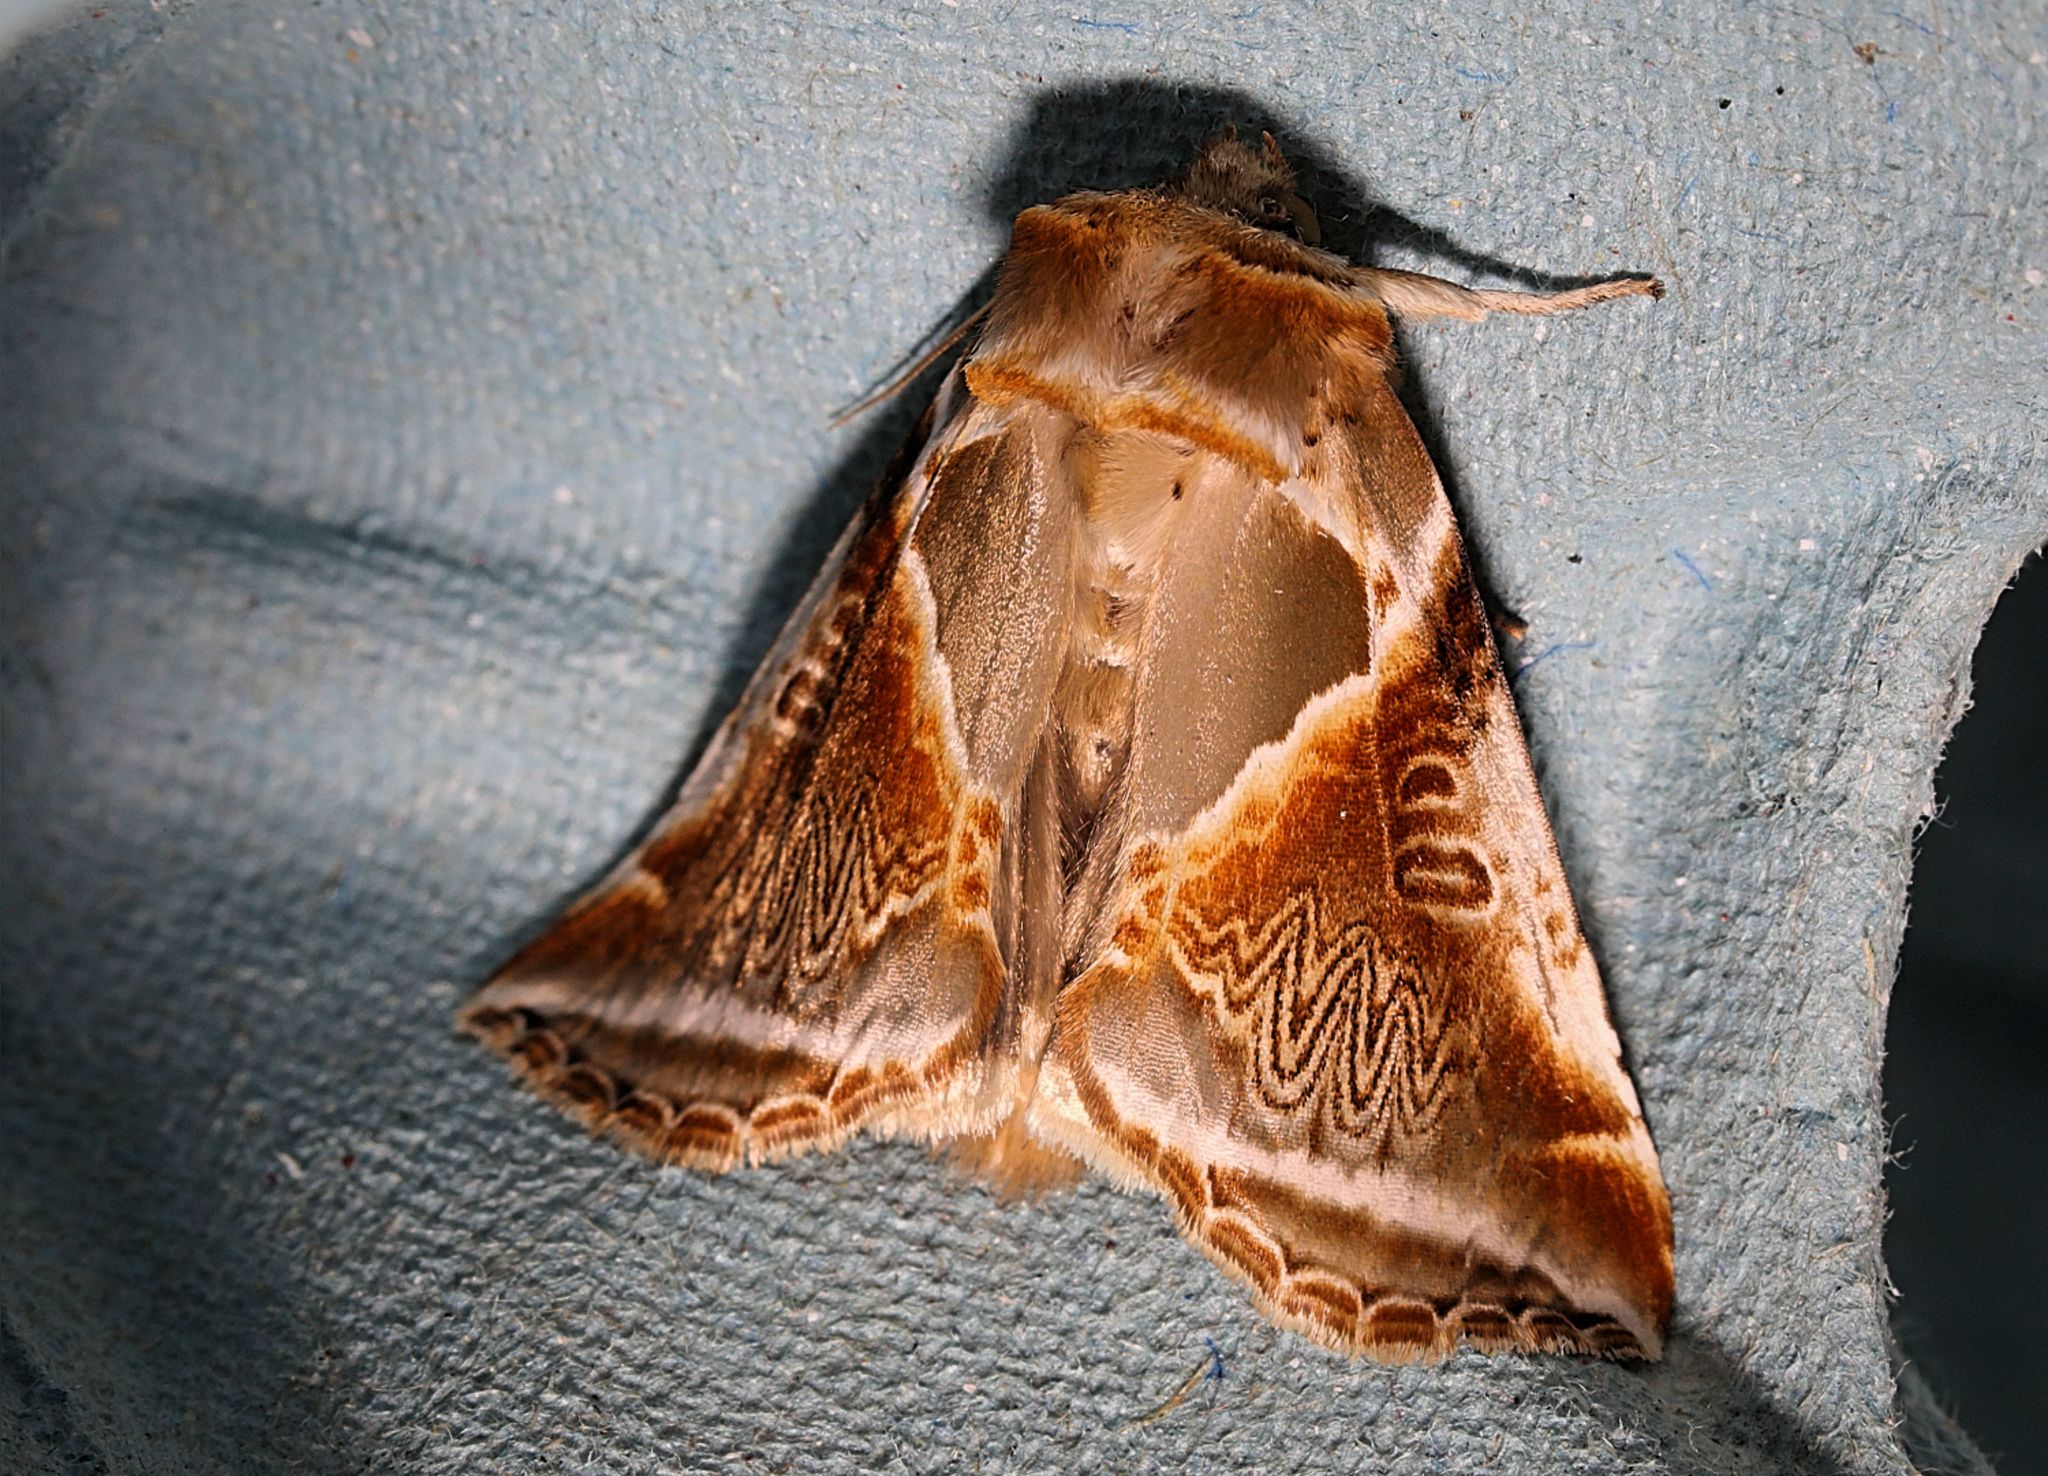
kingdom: Animalia
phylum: Arthropoda
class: Insecta
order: Lepidoptera
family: Drepanidae
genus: Habrosyne
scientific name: Habrosyne pyritoides
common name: Buff arches
